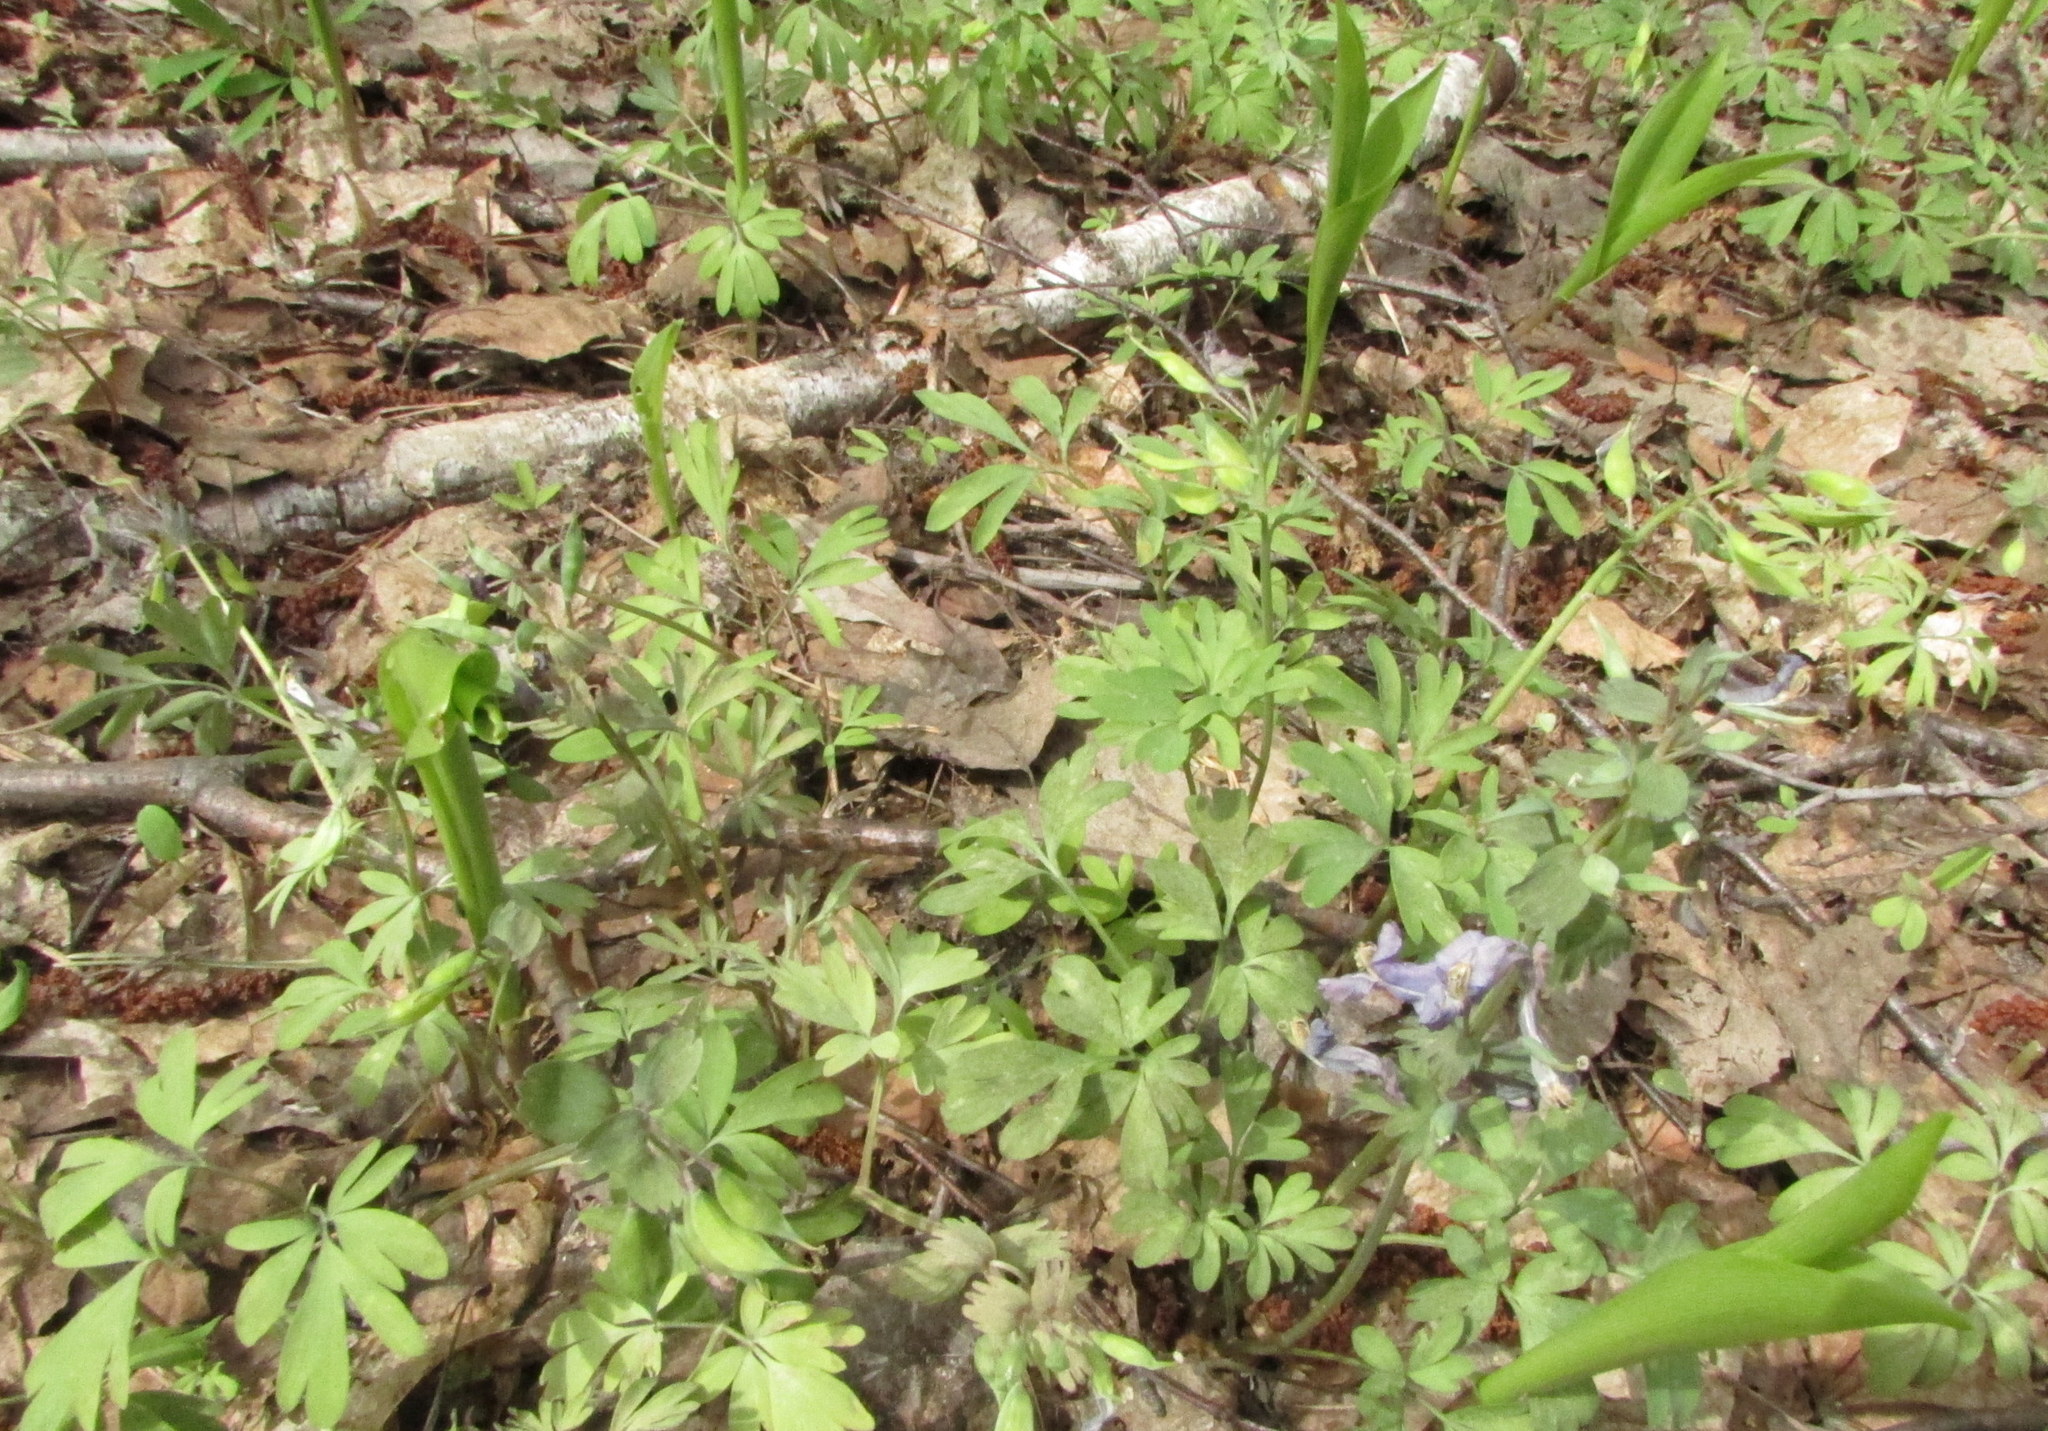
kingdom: Plantae
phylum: Tracheophyta
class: Magnoliopsida
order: Ranunculales
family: Papaveraceae
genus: Corydalis
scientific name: Corydalis solida
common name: Bird-in-a-bush
